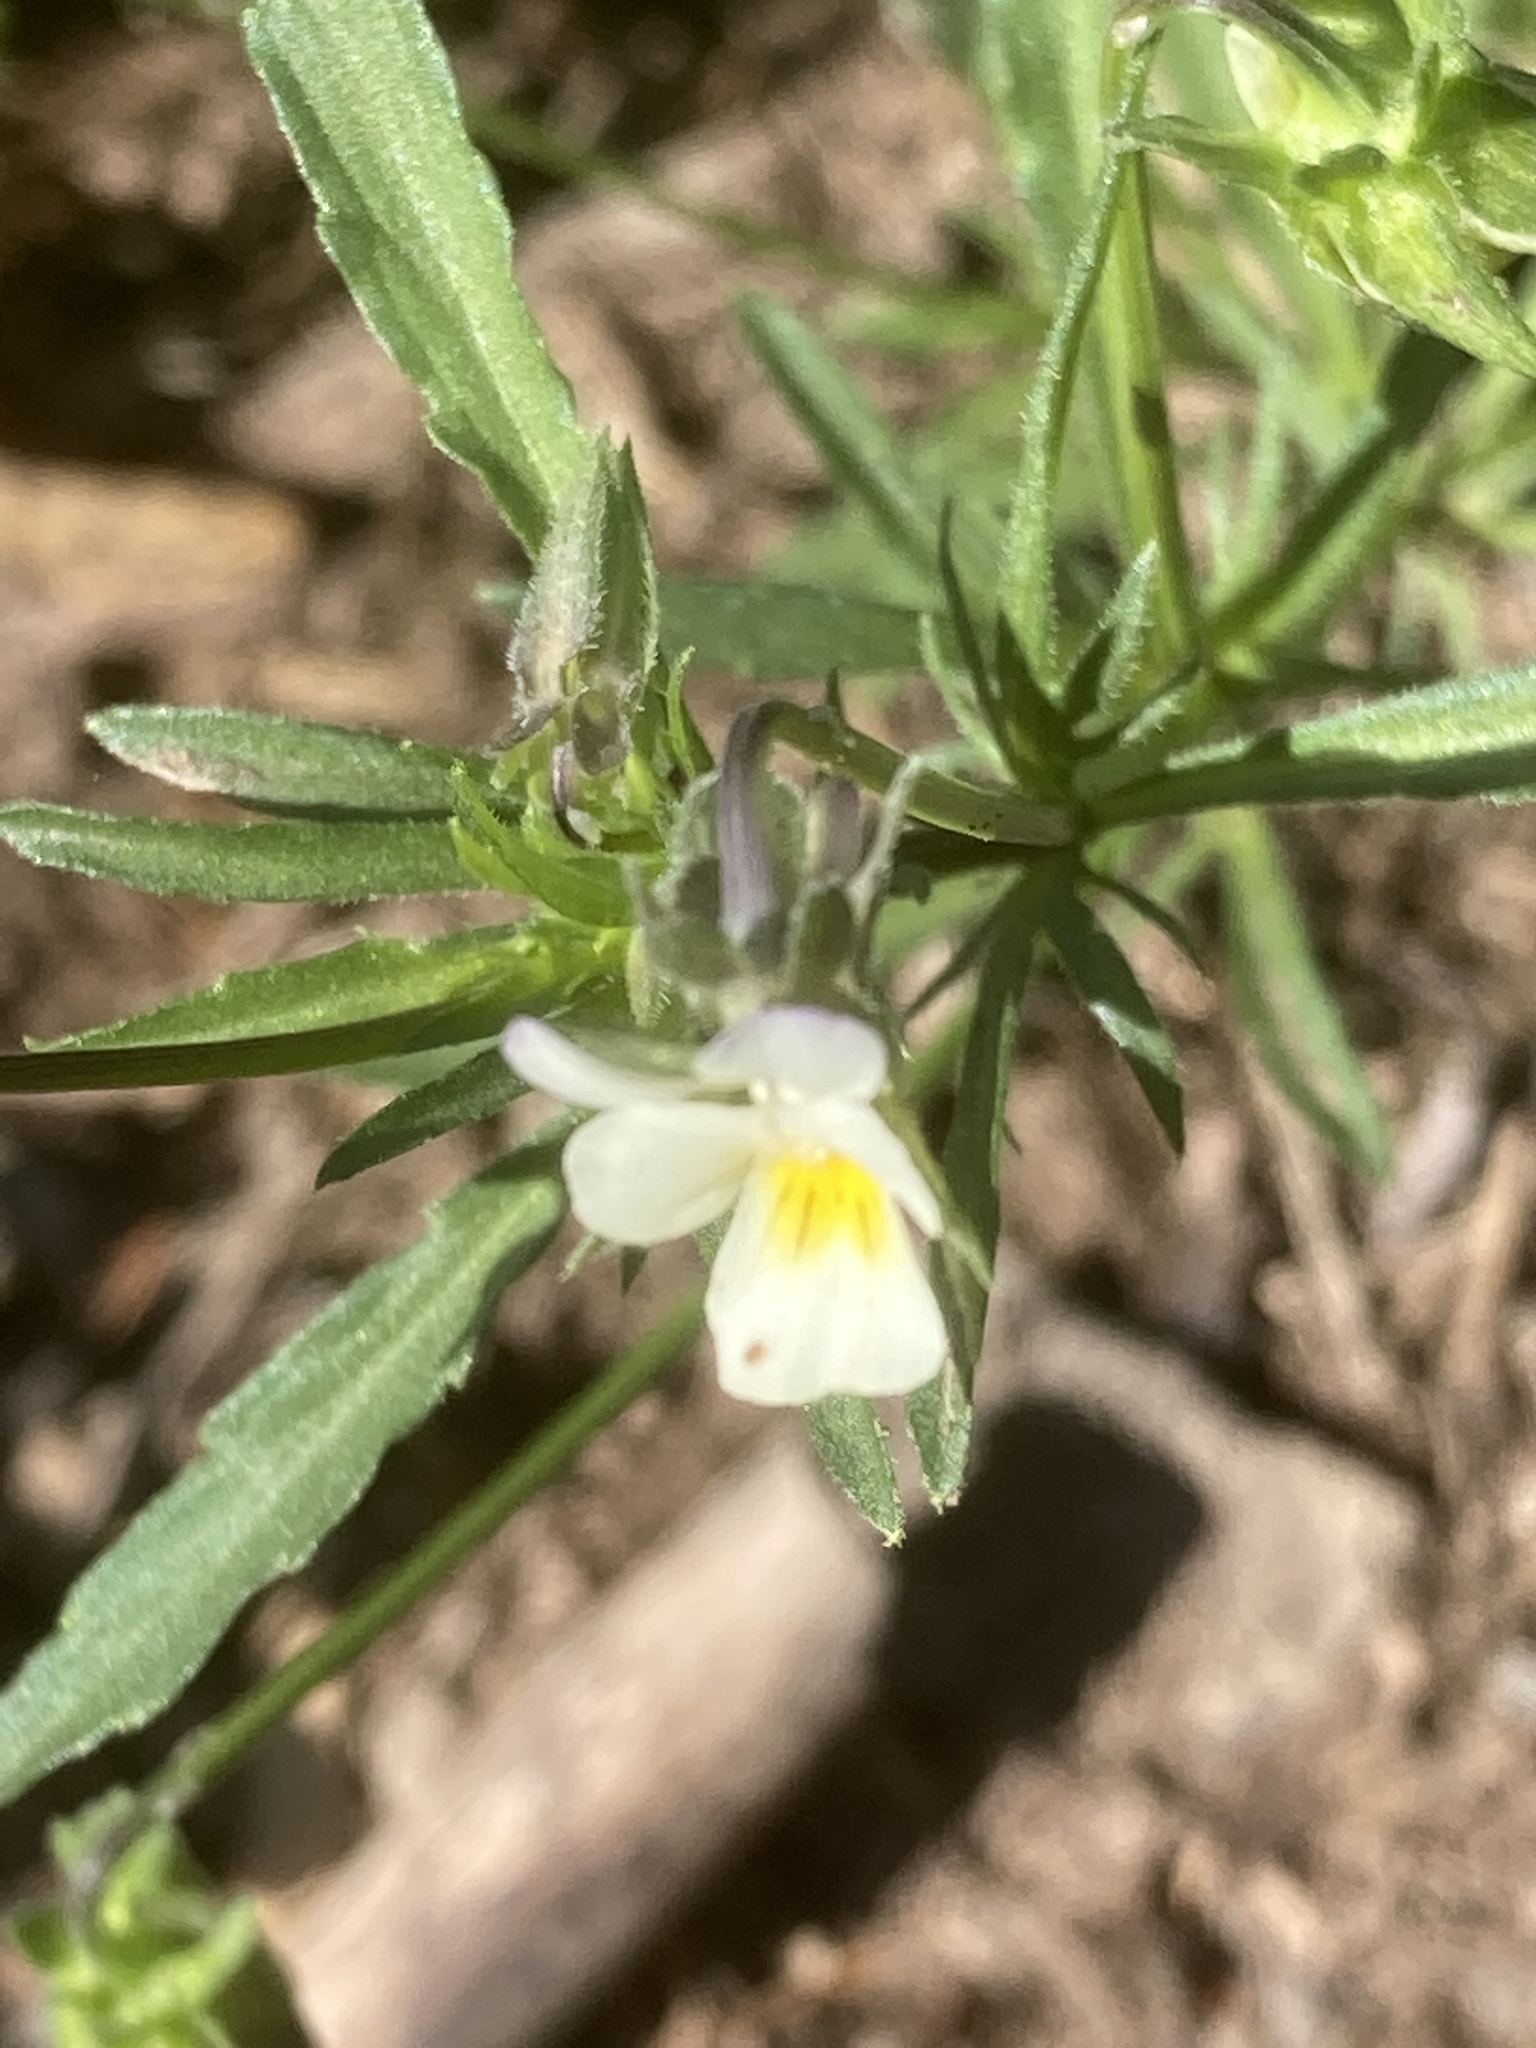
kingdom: Plantae
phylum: Tracheophyta
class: Magnoliopsida
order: Malpighiales
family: Violaceae
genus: Viola
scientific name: Viola arvensis
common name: Field pansy
